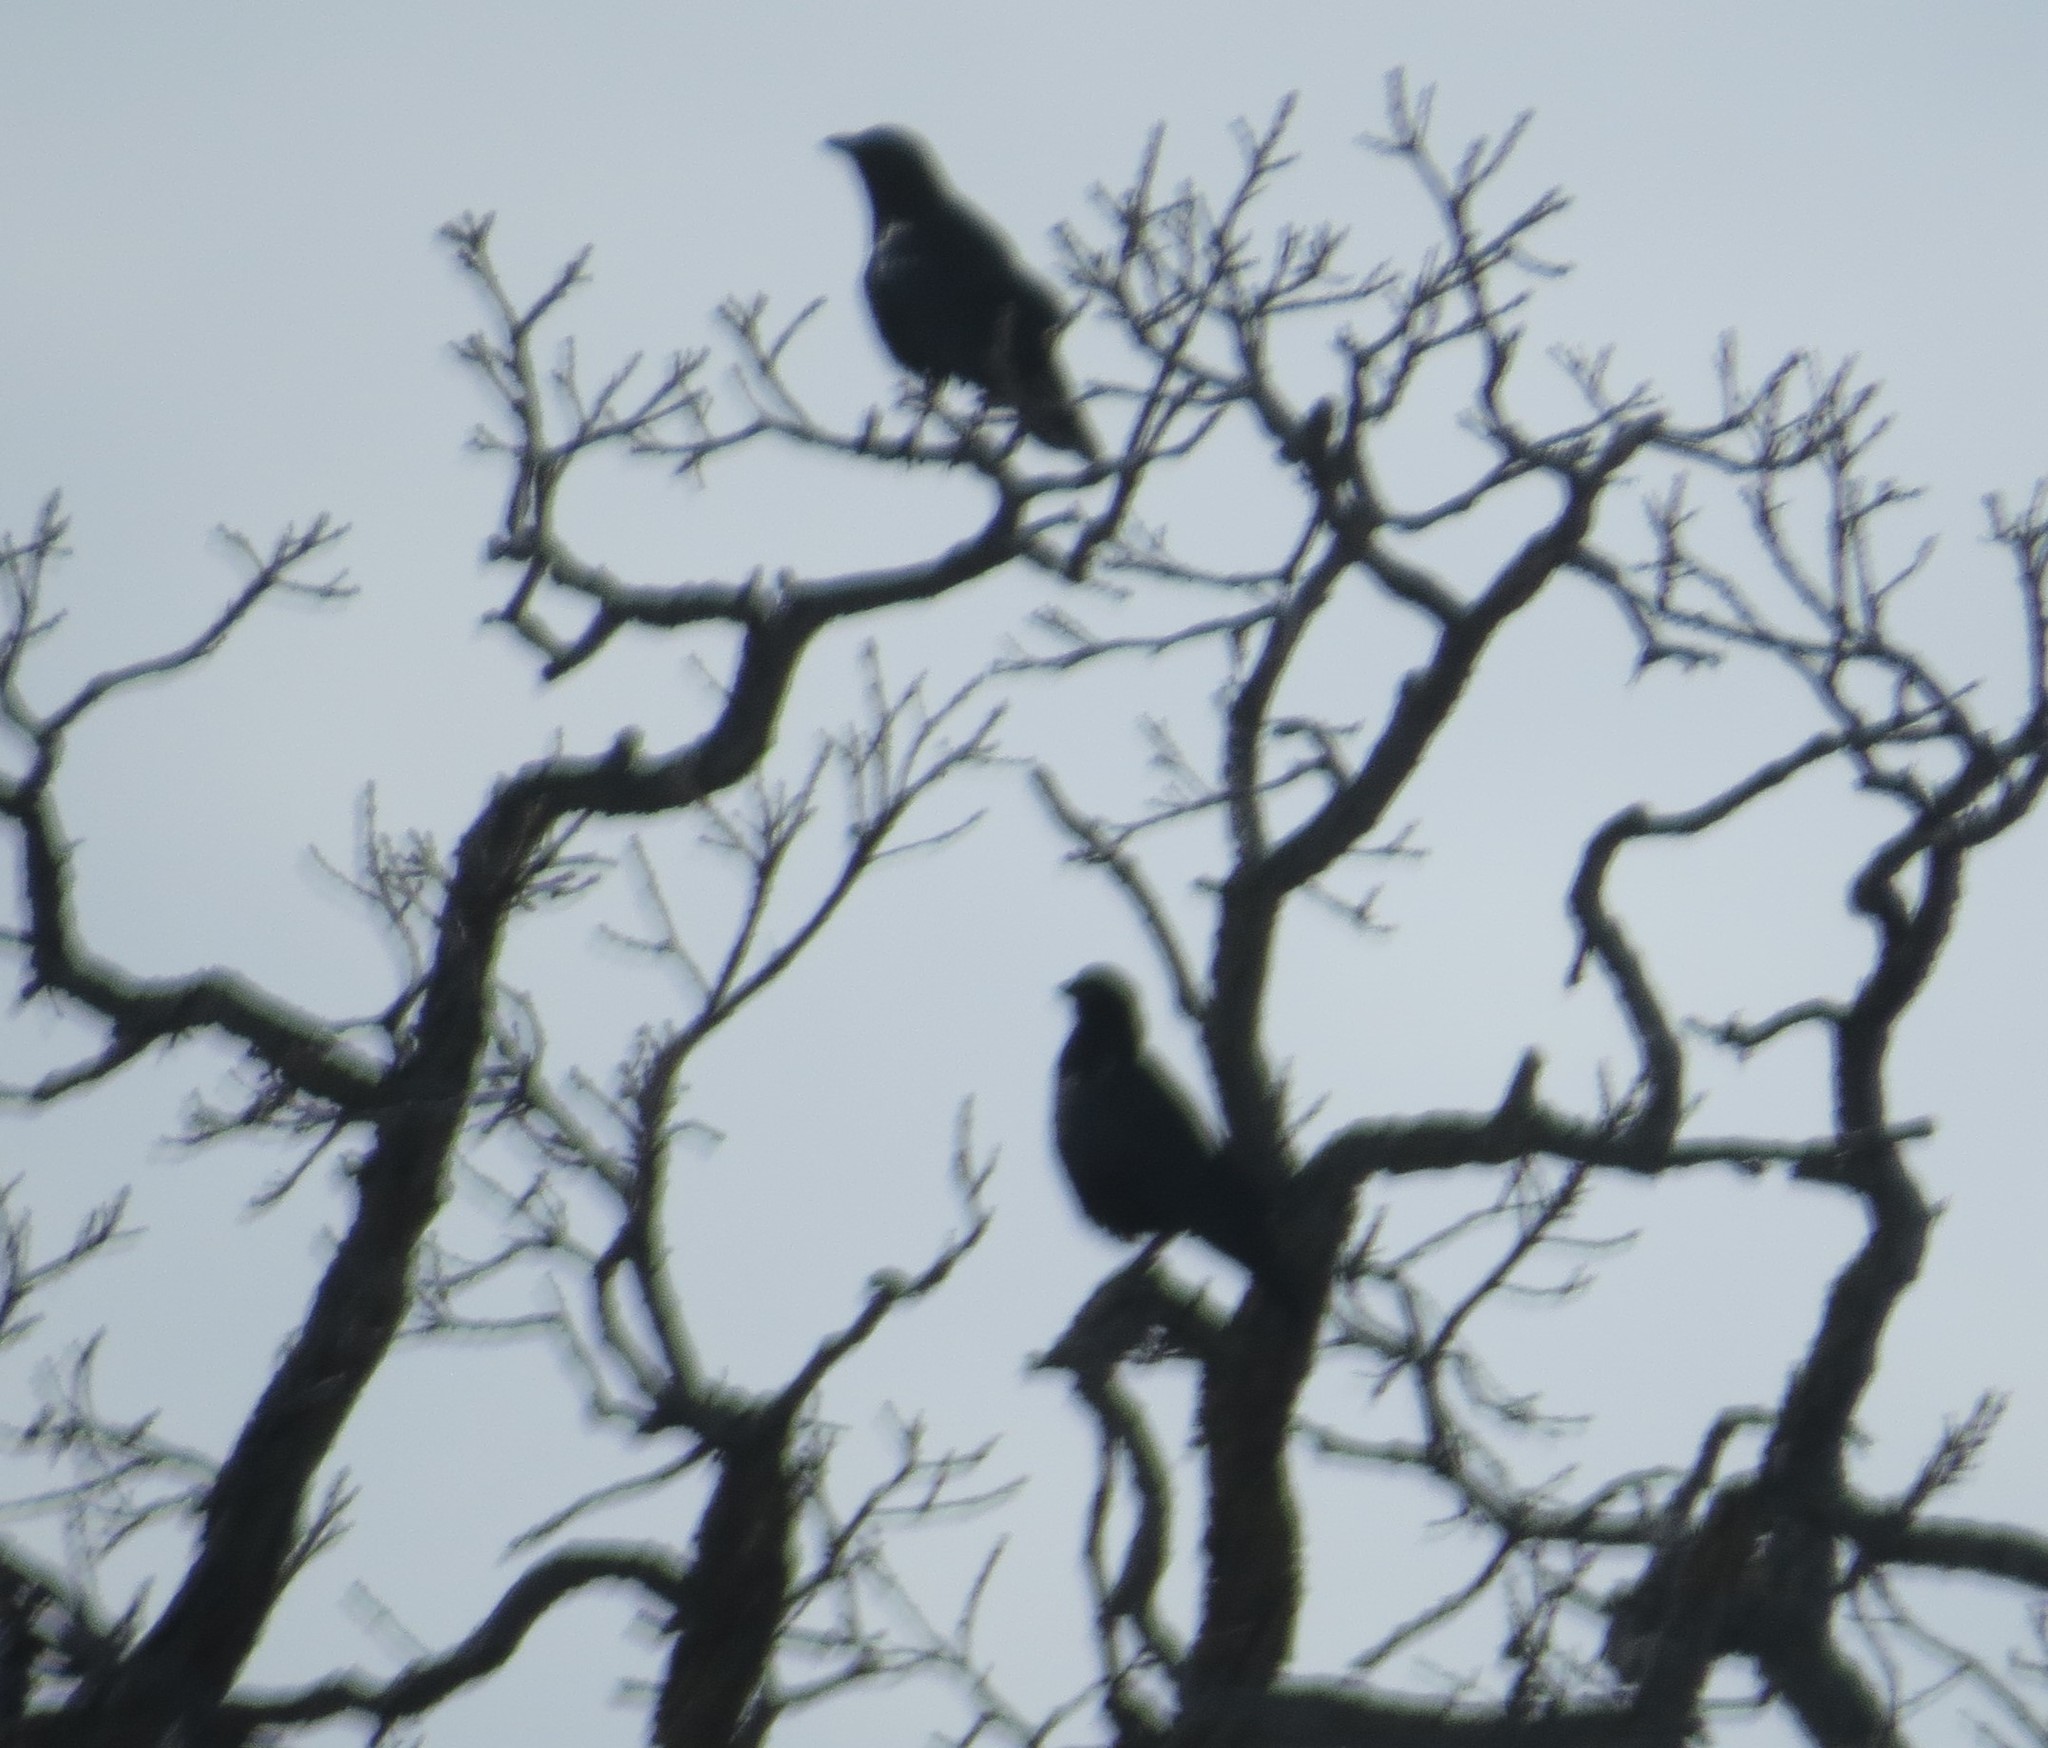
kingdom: Animalia
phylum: Chordata
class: Aves
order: Passeriformes
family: Corvidae
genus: Corvus
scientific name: Corvus brachyrhynchos
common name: American crow
